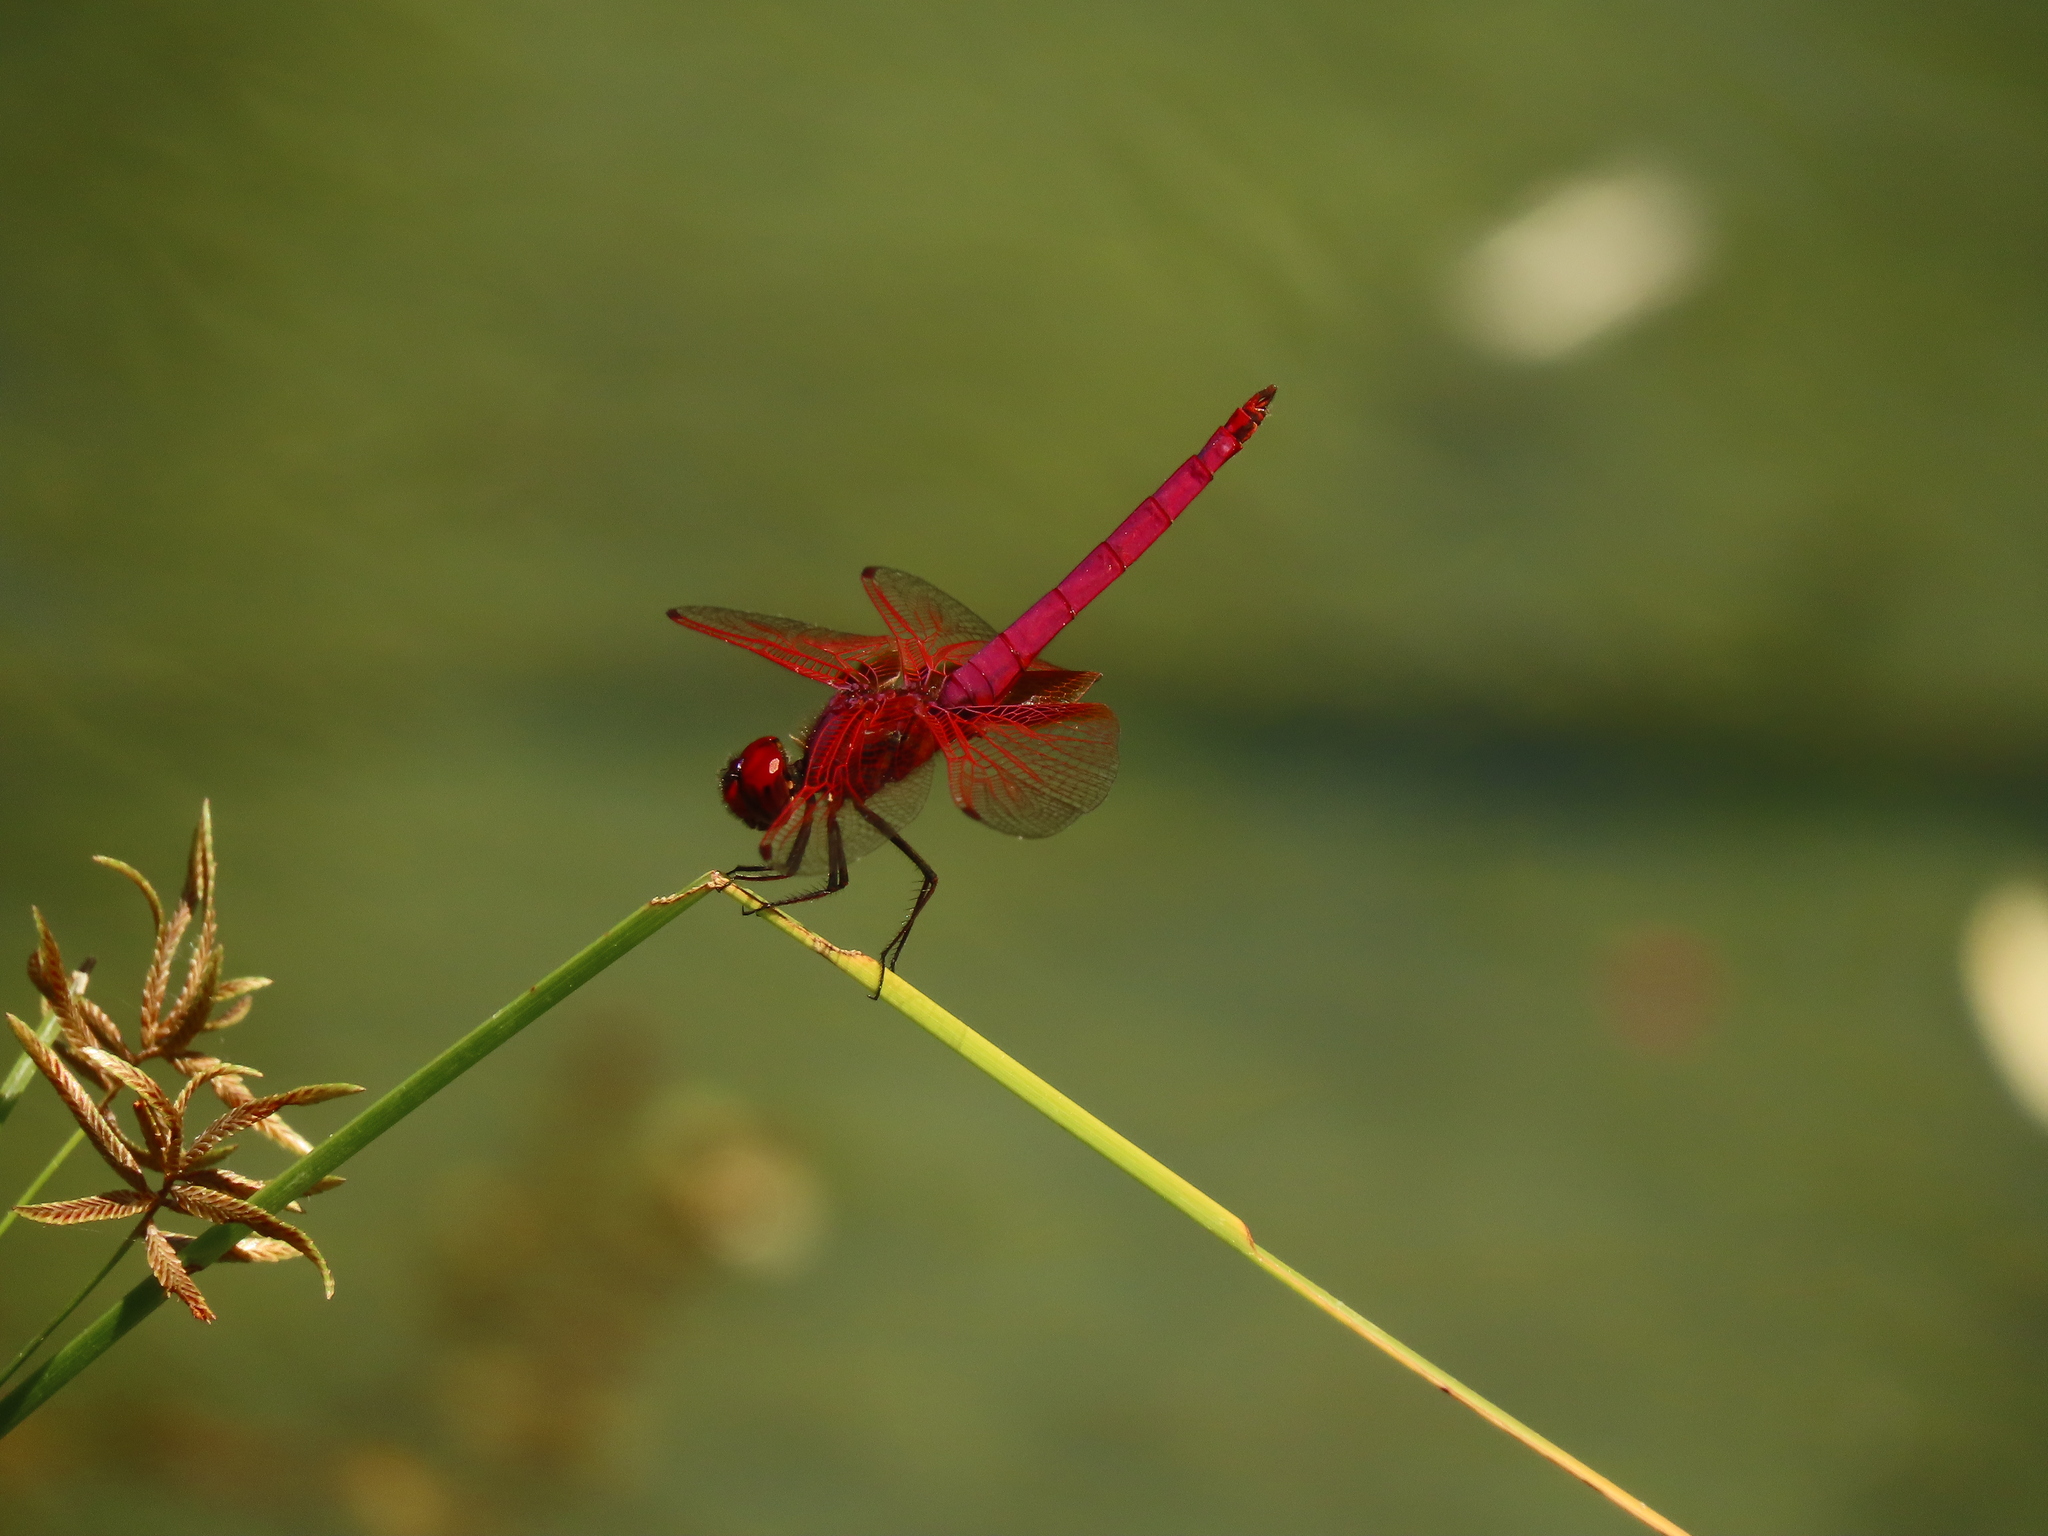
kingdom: Animalia
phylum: Arthropoda
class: Insecta
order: Odonata
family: Libellulidae
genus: Trithemis
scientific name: Trithemis aurora
